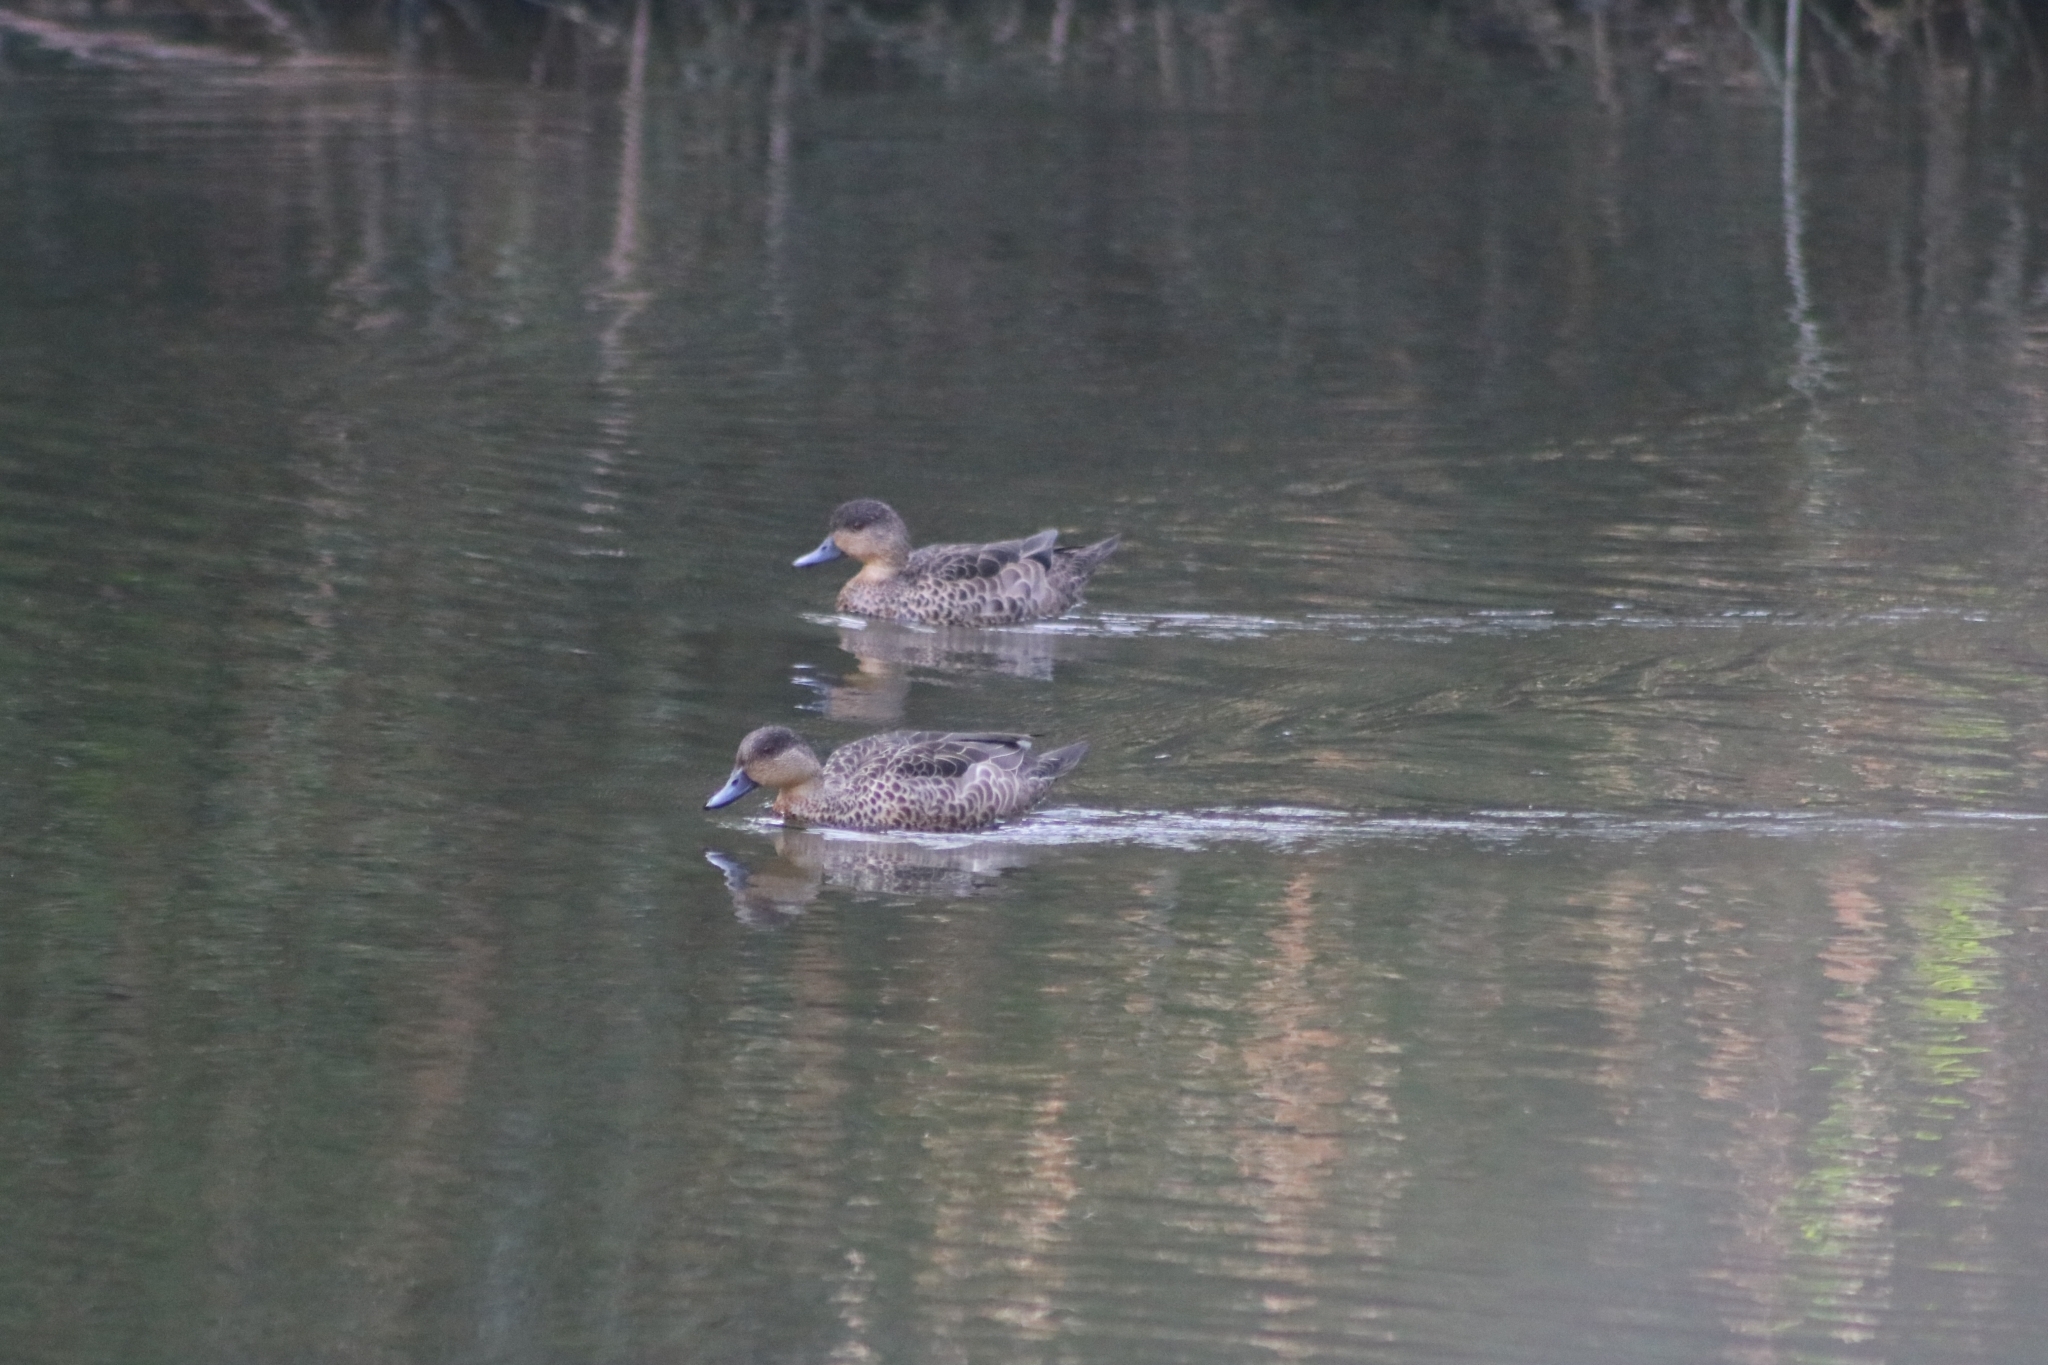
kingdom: Animalia
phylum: Chordata
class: Aves
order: Anseriformes
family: Anatidae
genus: Anas
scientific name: Anas castanea
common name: Chestnut teal
